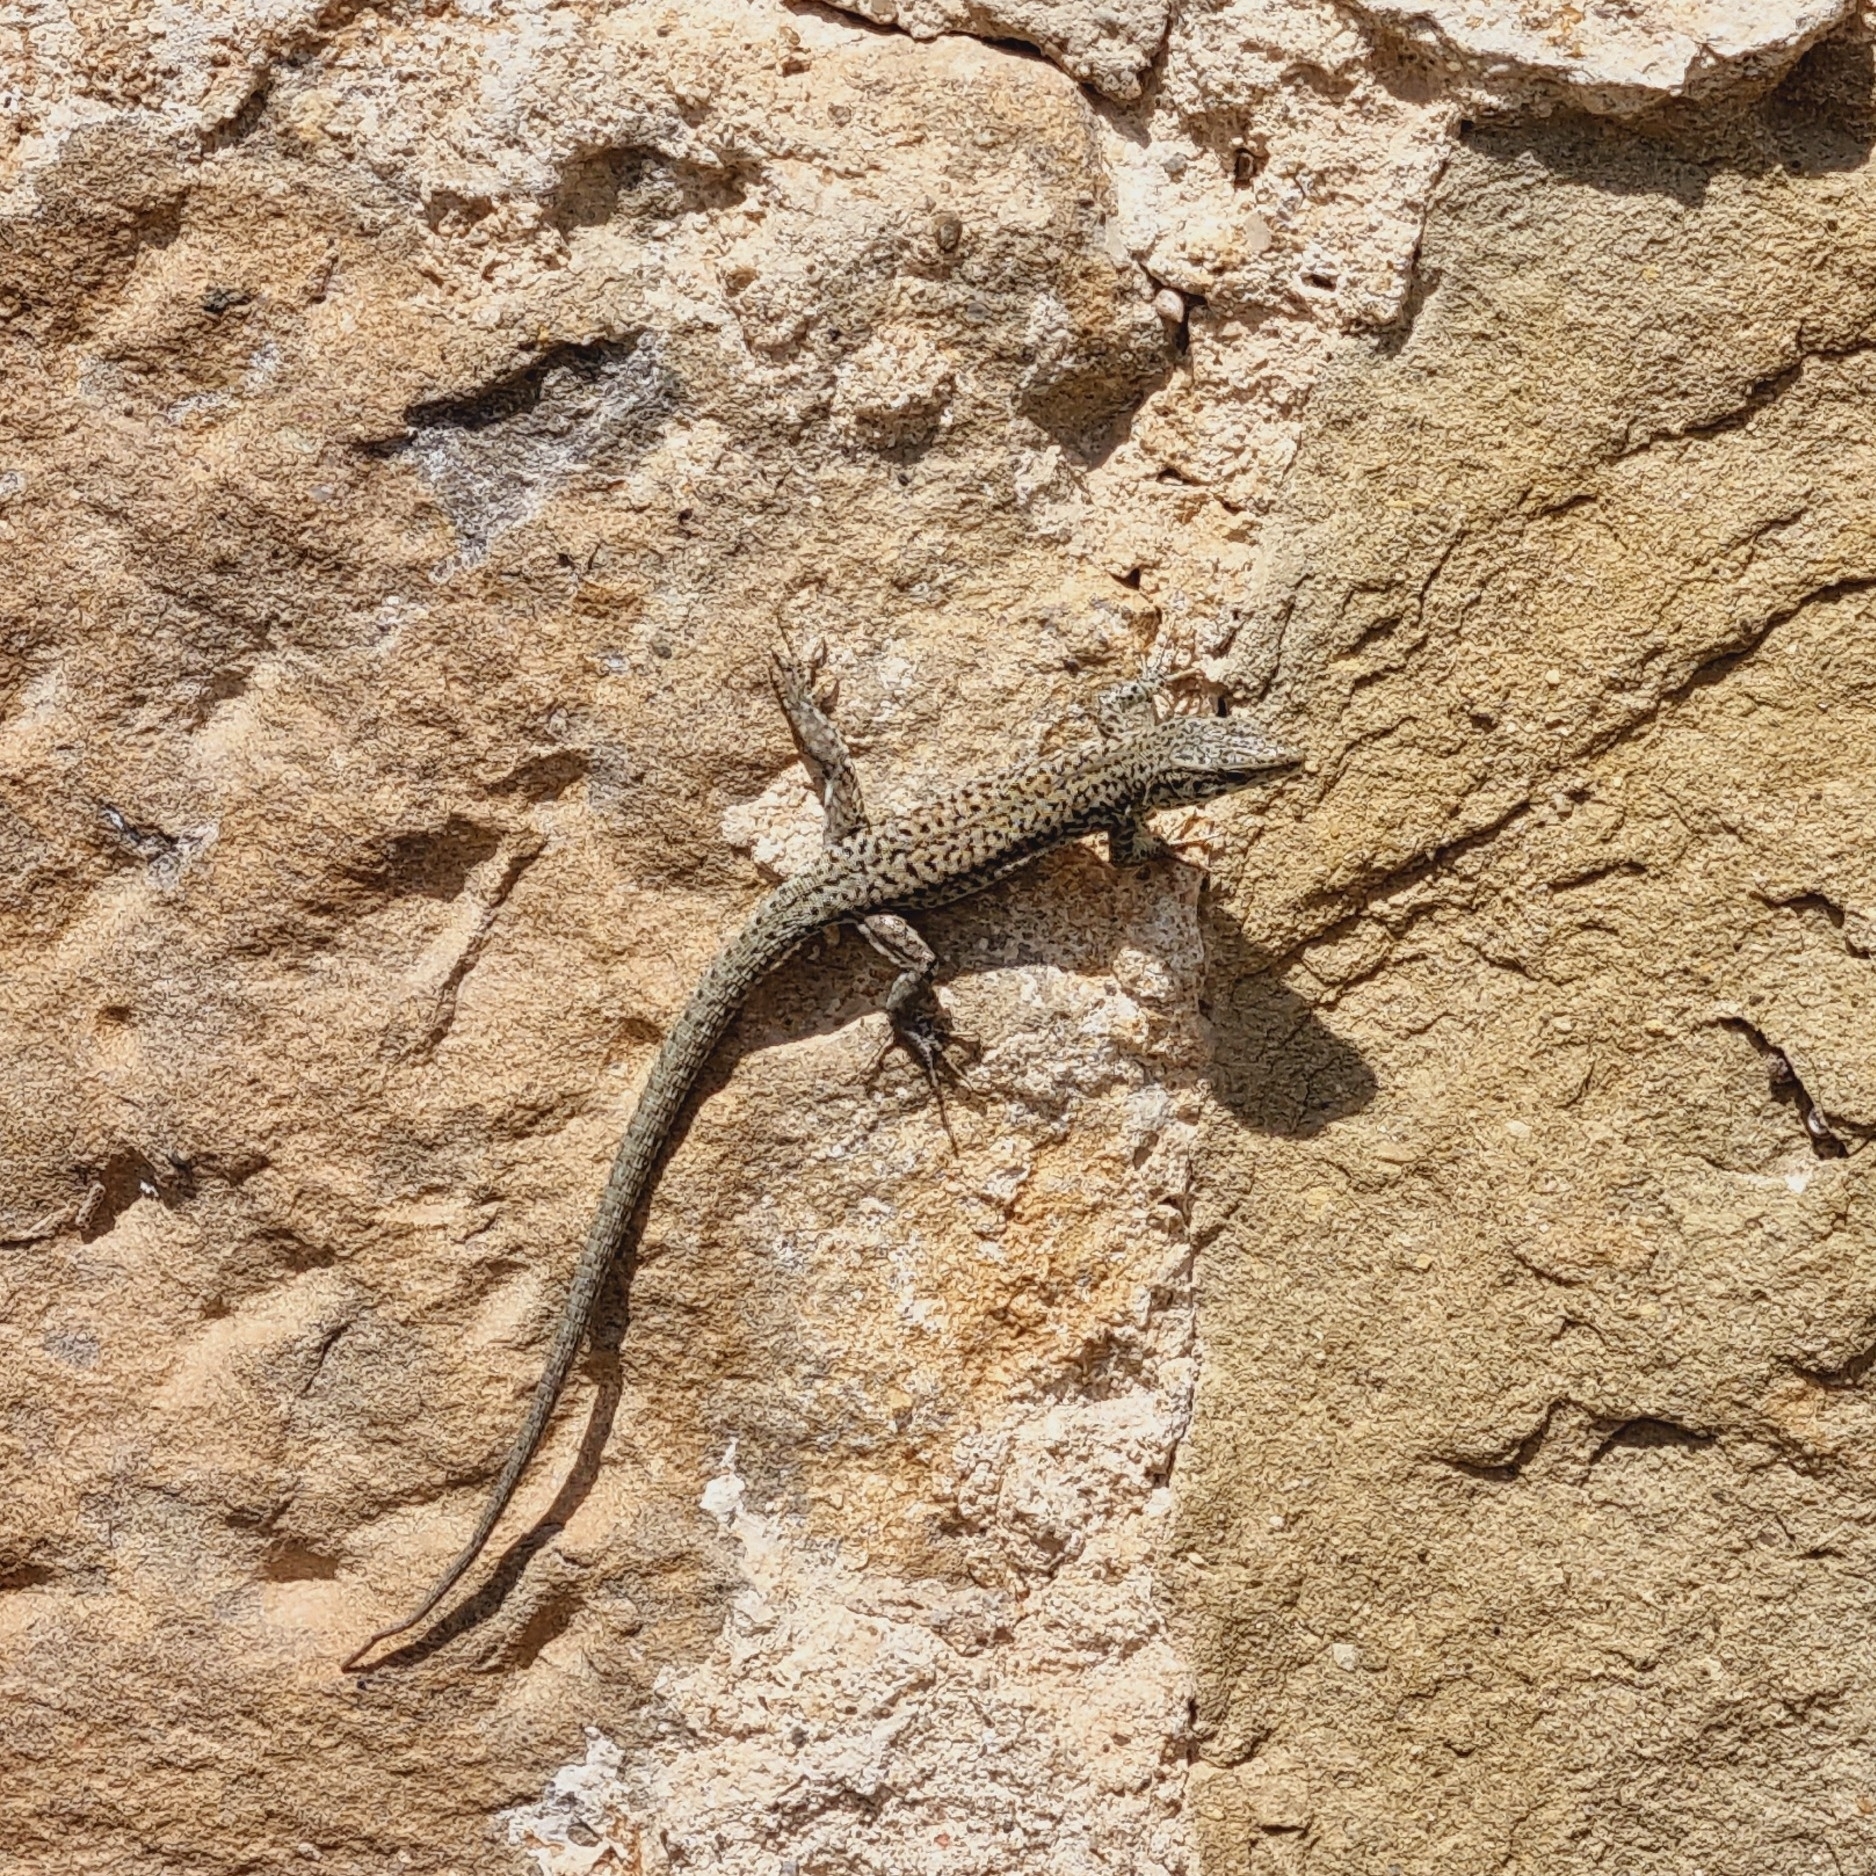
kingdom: Animalia
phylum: Chordata
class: Squamata
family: Lacertidae
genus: Podarcis
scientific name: Podarcis liolepis
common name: Catalonian wall lizard
